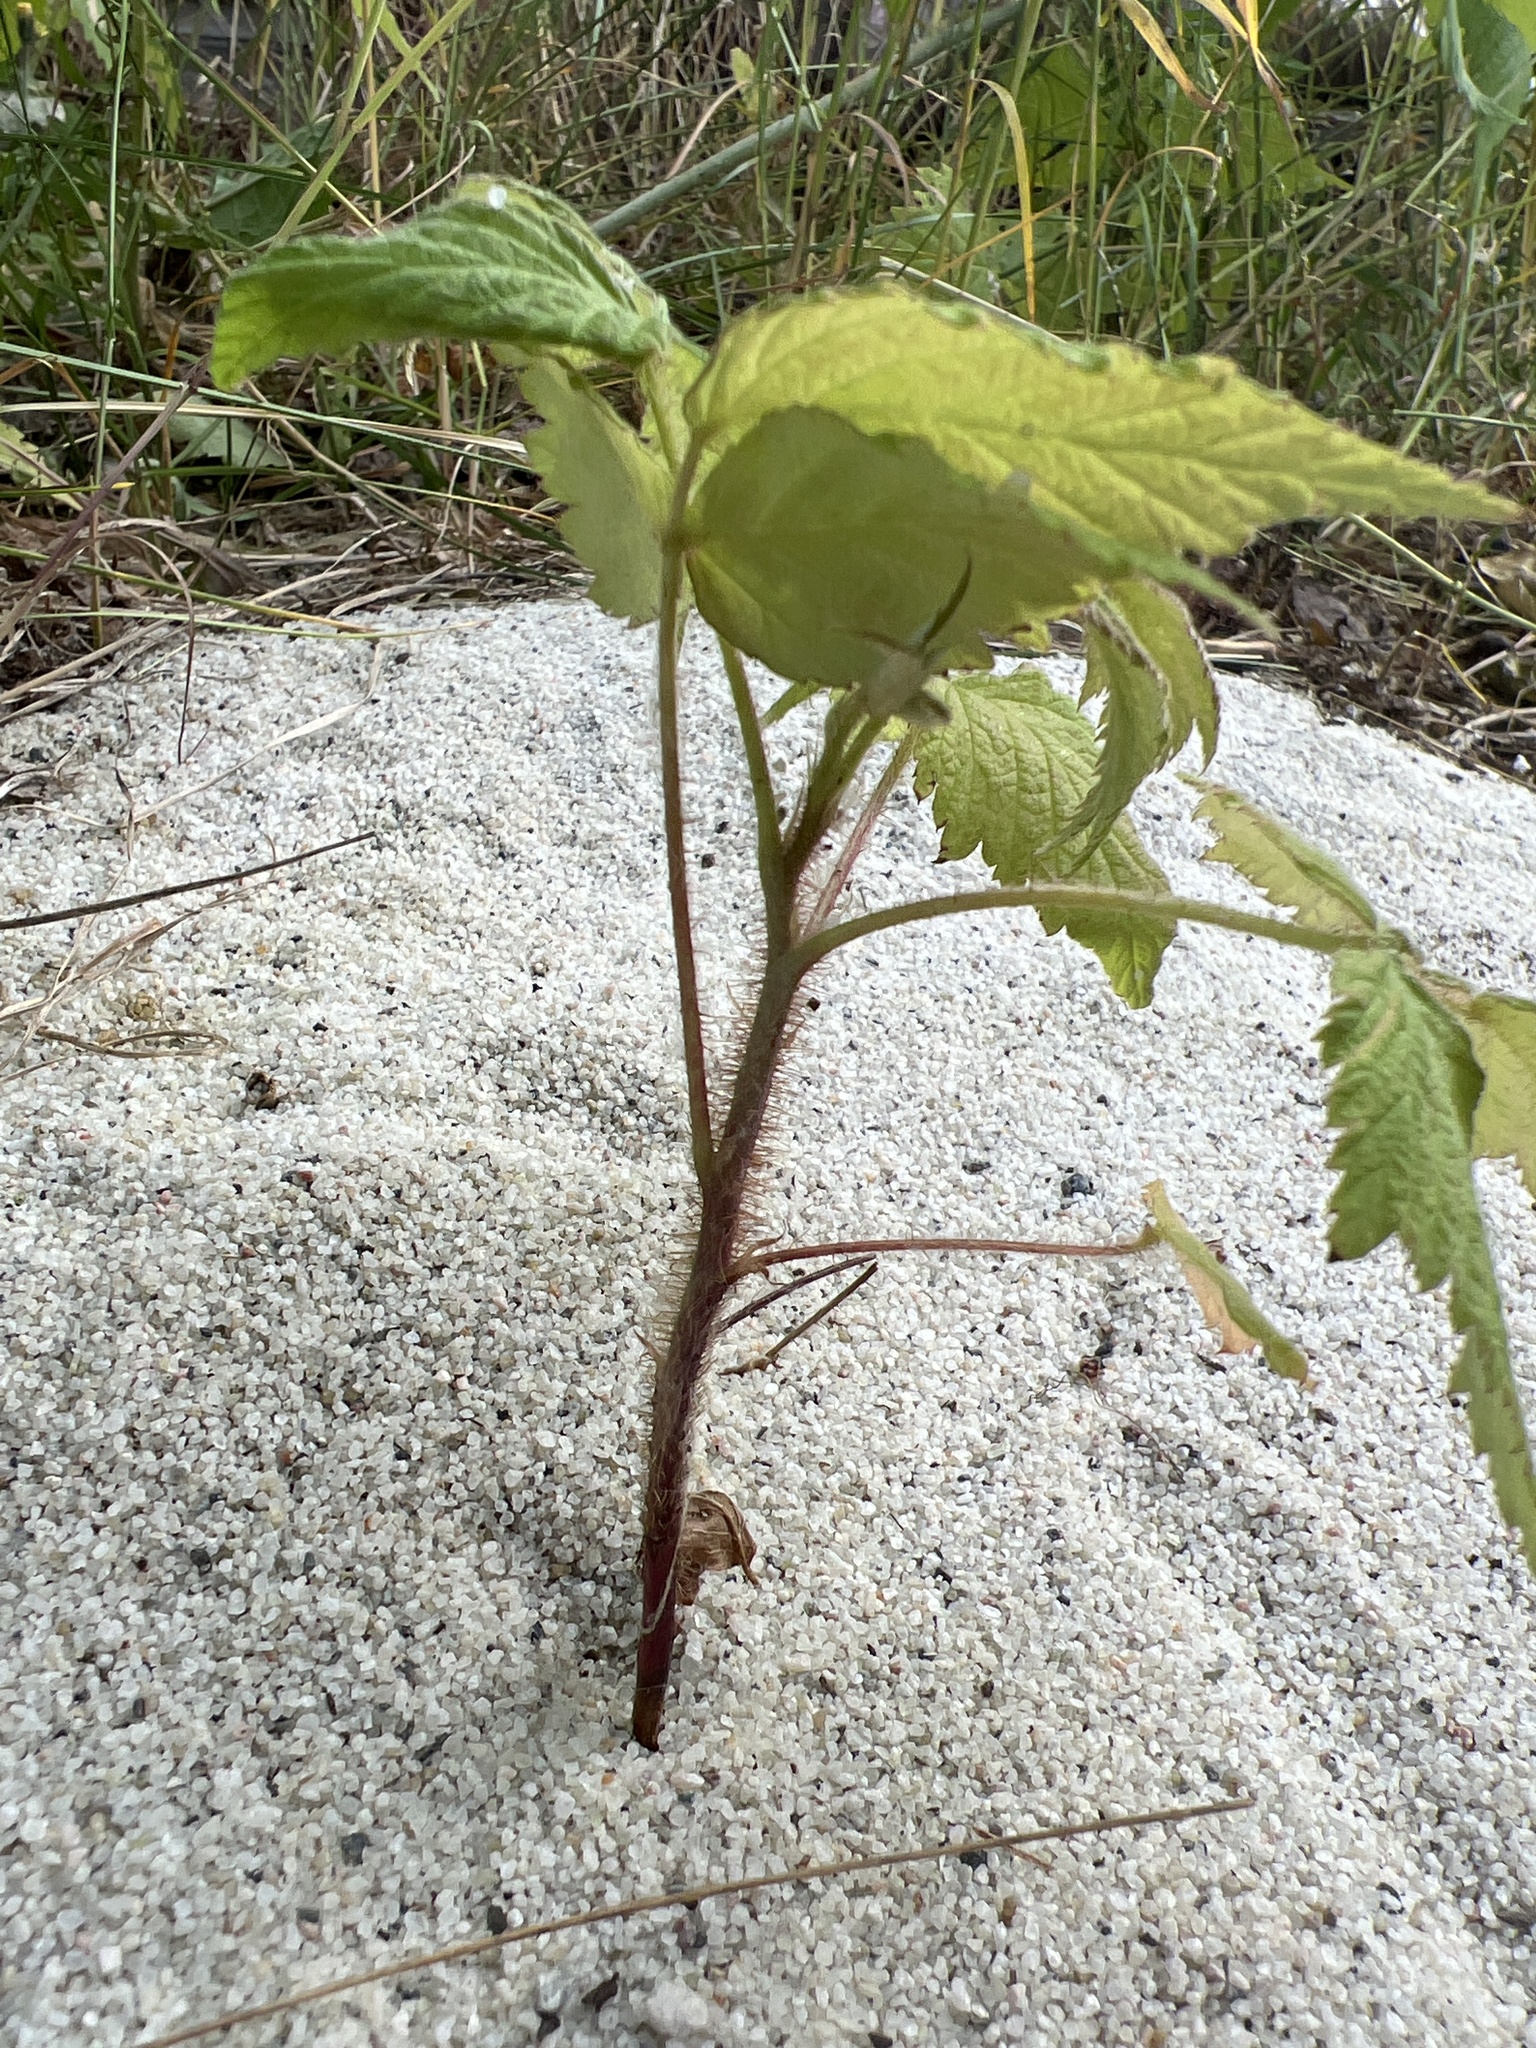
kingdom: Plantae
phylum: Tracheophyta
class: Magnoliopsida
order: Rosales
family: Rosaceae
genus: Rubus
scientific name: Rubus idaeus
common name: Raspberry
